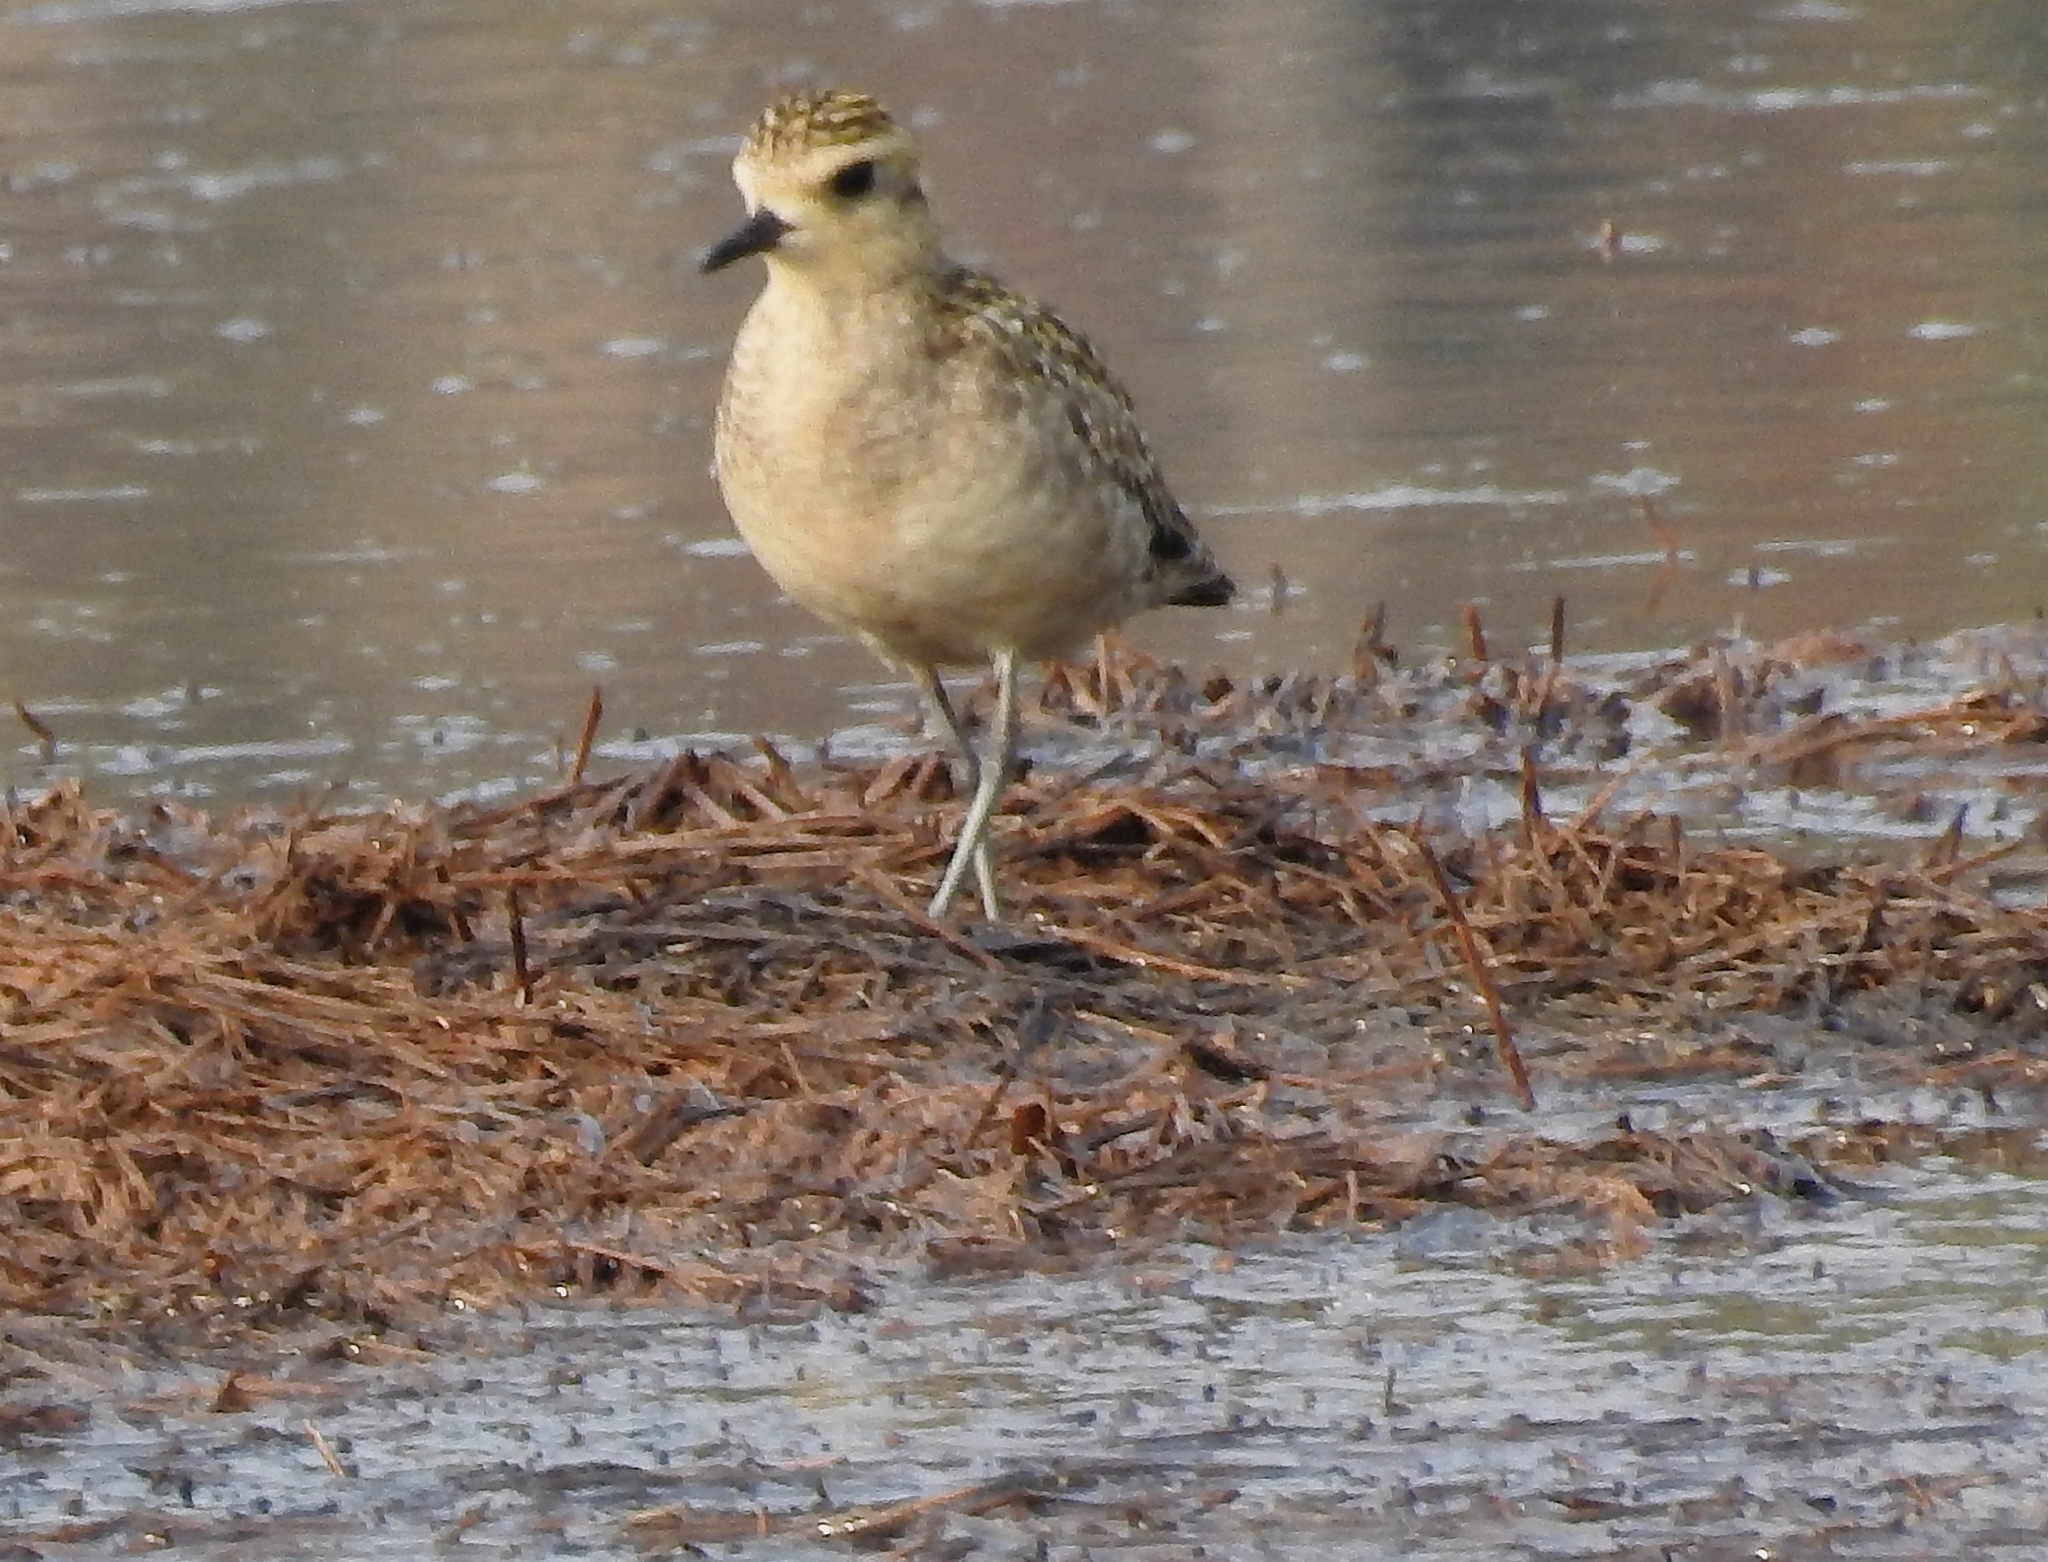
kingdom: Animalia
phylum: Chordata
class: Aves
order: Charadriiformes
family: Charadriidae
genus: Pluvialis
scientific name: Pluvialis fulva
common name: Pacific golden plover
